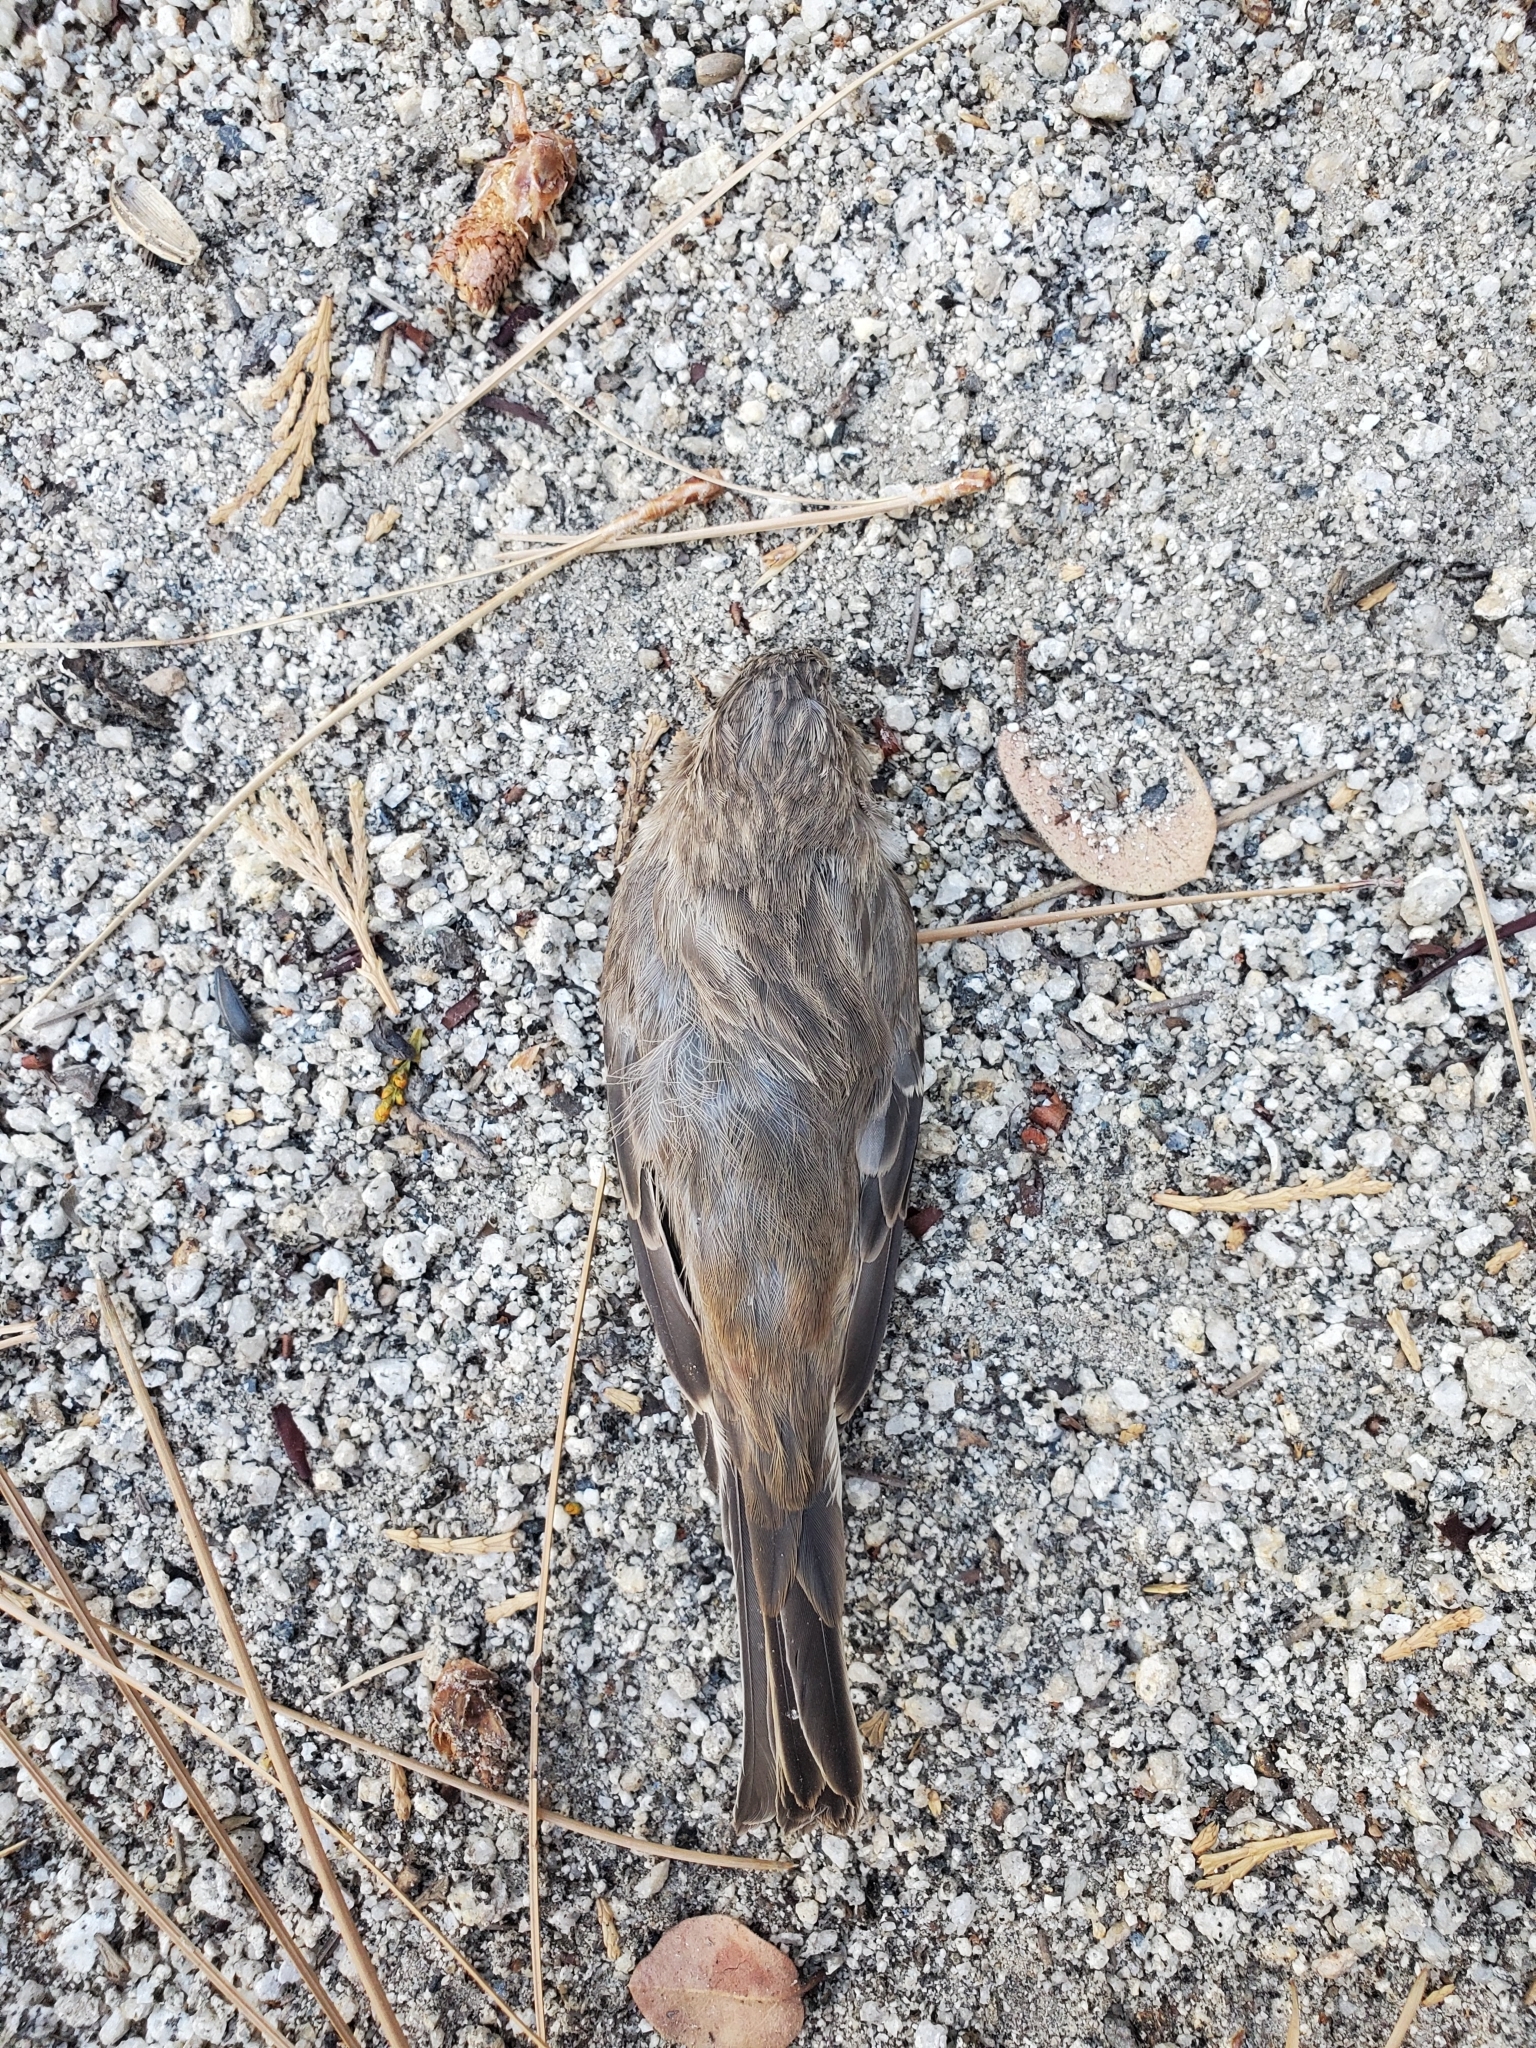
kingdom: Animalia
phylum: Chordata
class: Aves
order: Passeriformes
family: Fringillidae
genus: Haemorhous
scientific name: Haemorhous mexicanus
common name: House finch
